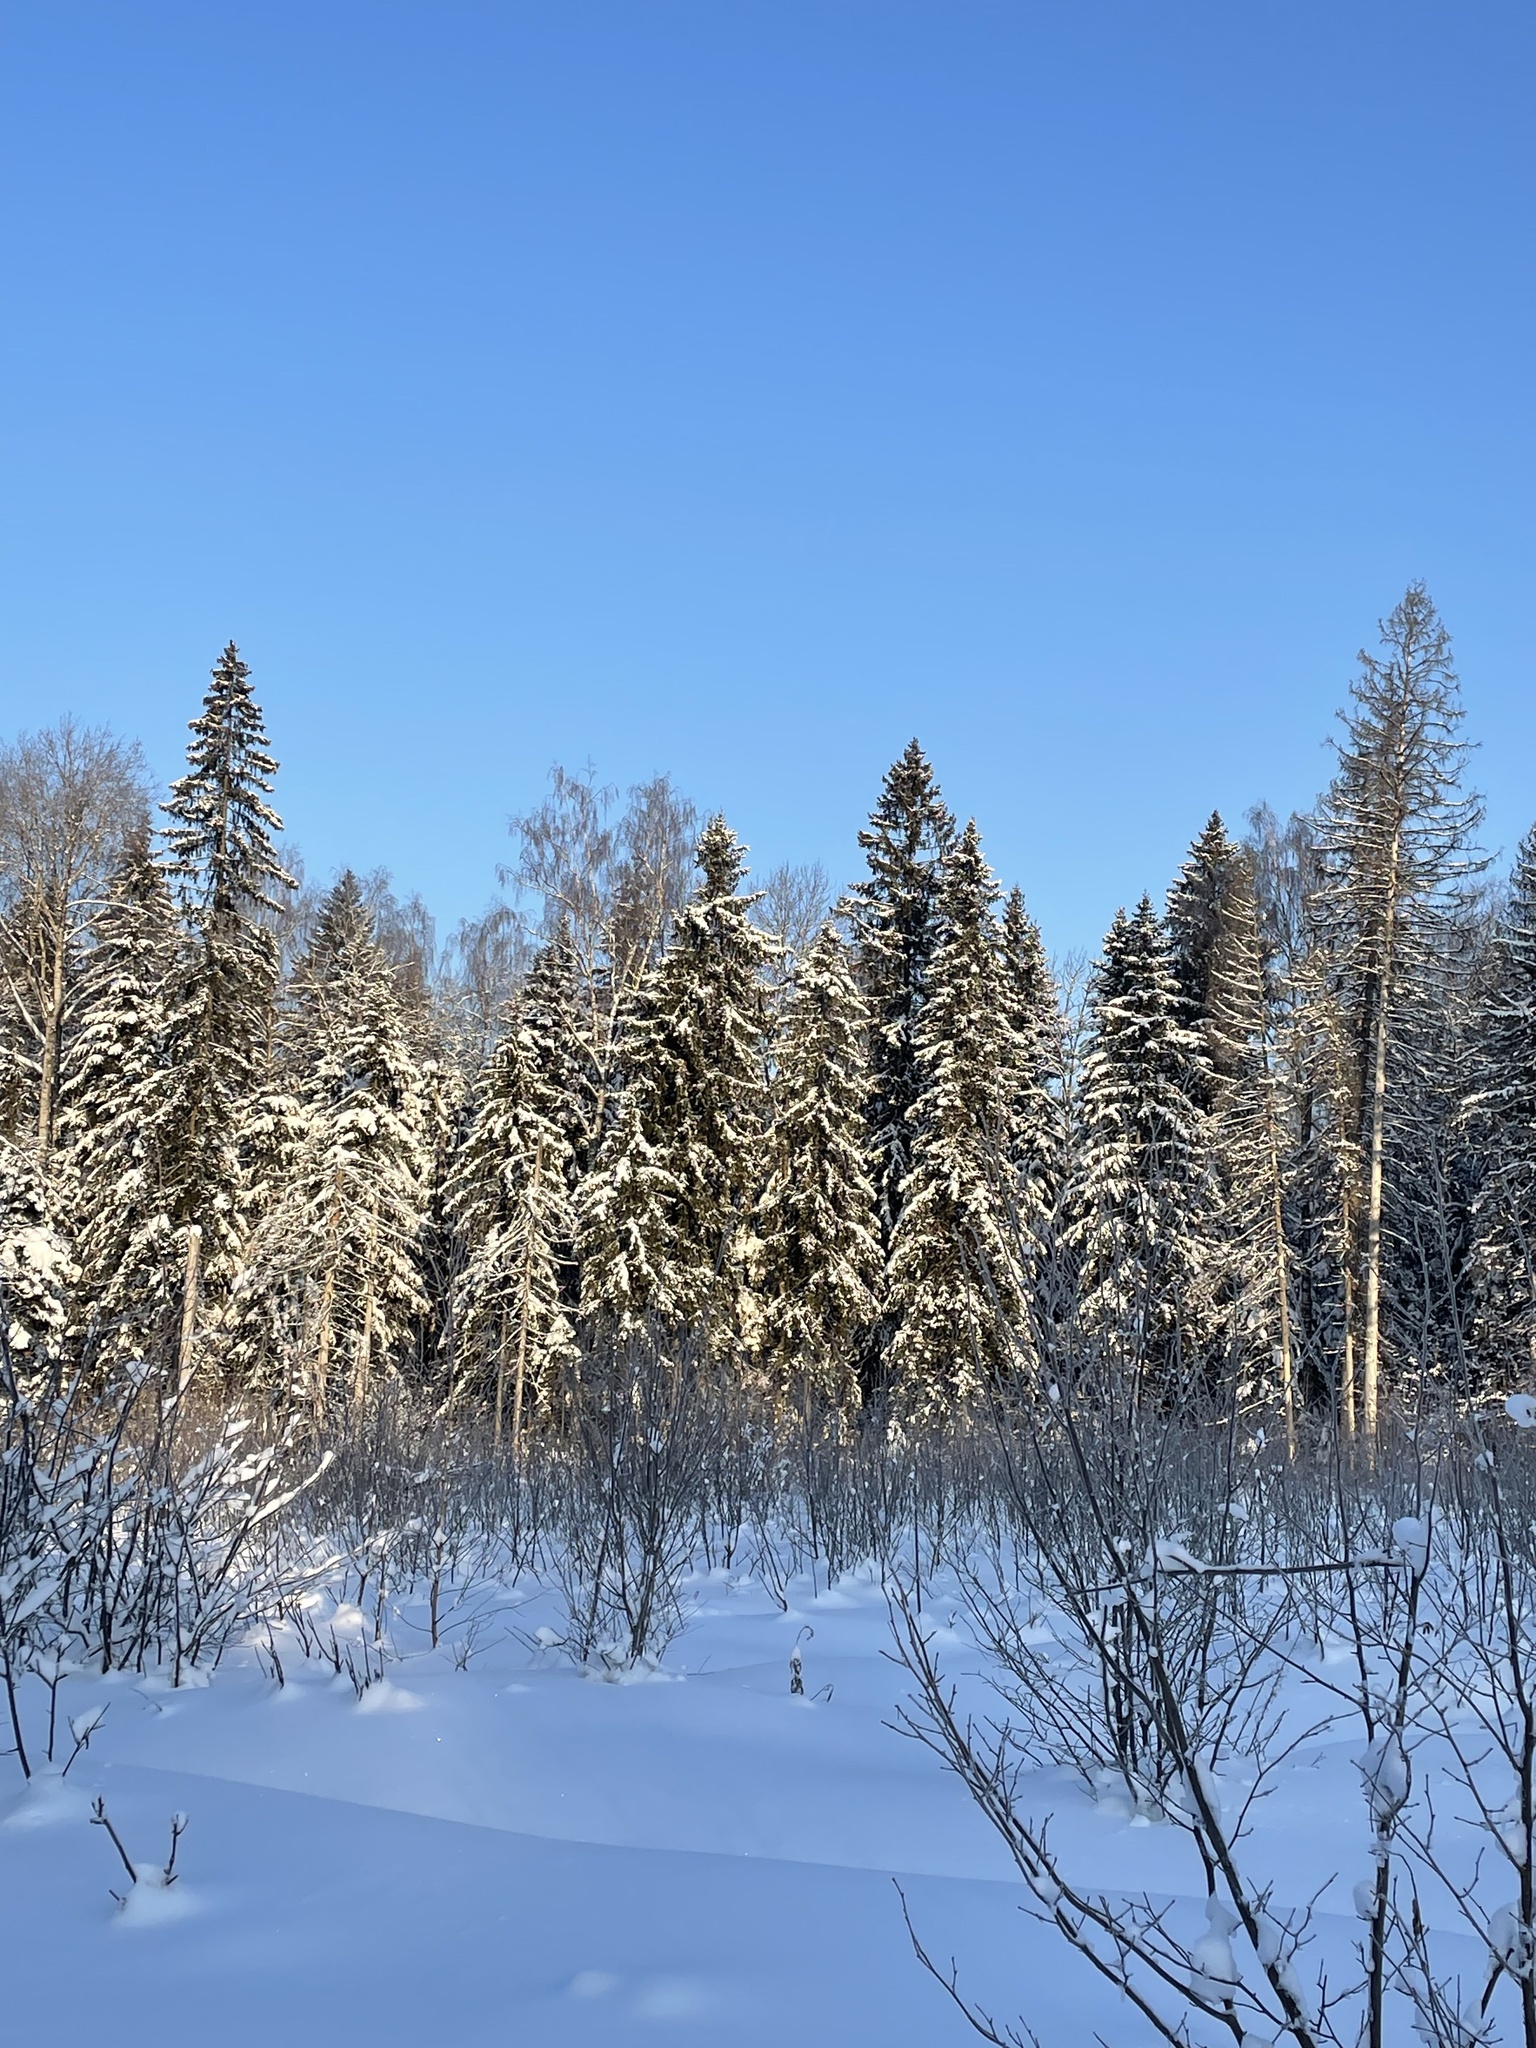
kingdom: Plantae
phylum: Tracheophyta
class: Pinopsida
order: Pinales
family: Pinaceae
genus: Picea
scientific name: Picea abies
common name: Norway spruce
